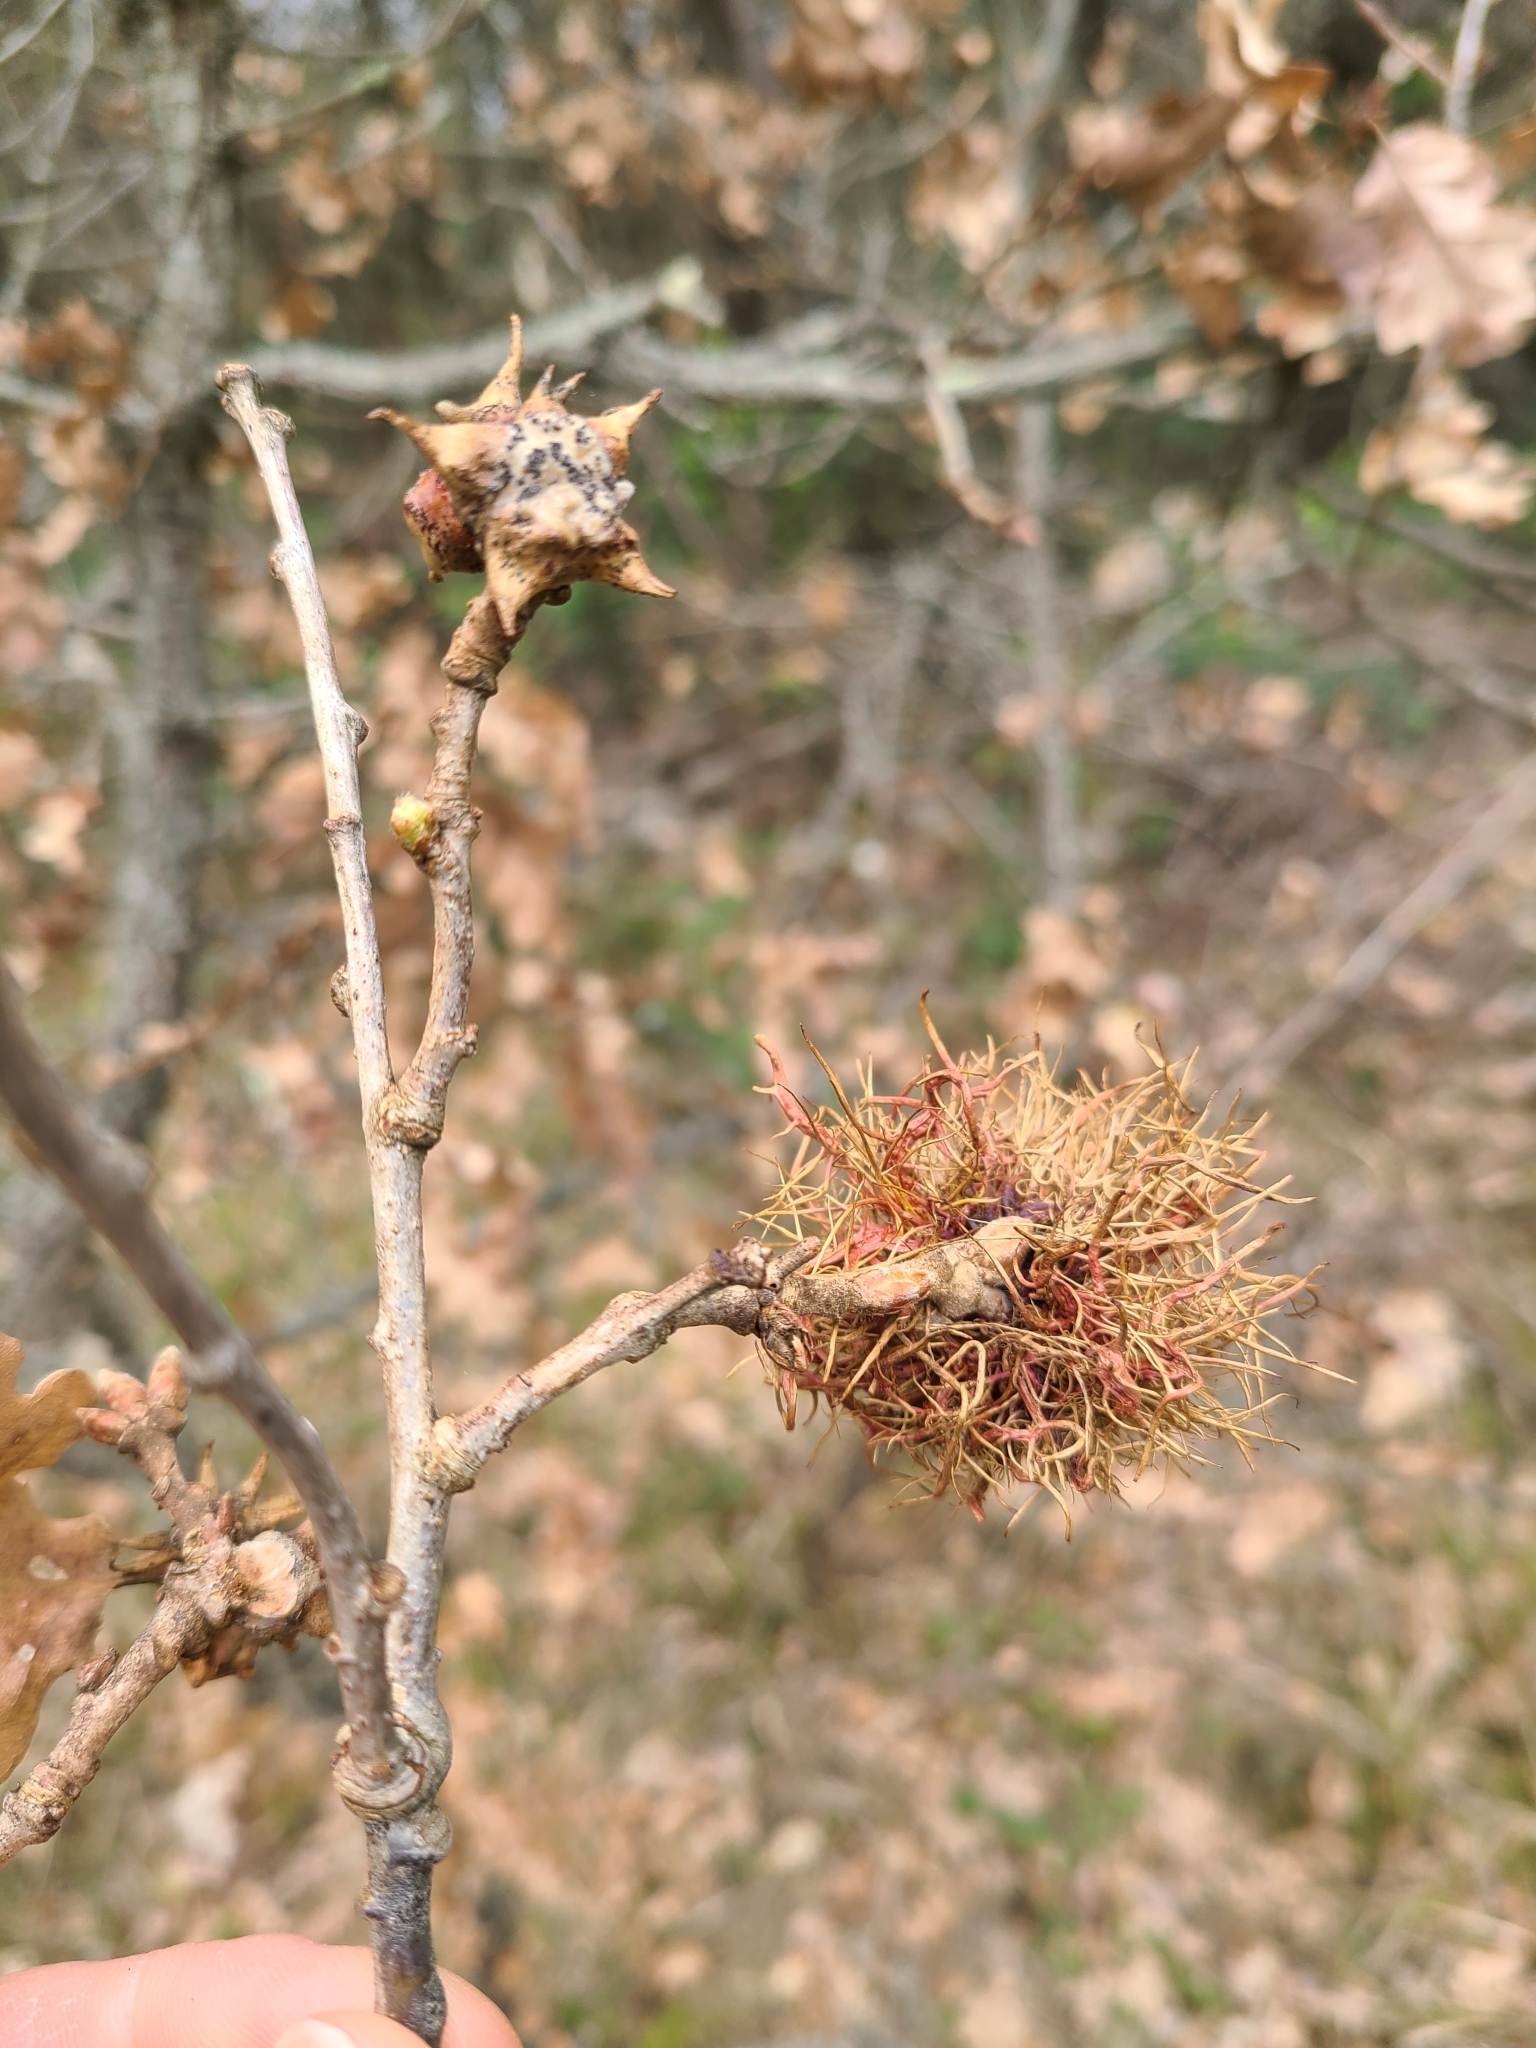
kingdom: Animalia
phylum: Arthropoda
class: Insecta
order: Hymenoptera
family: Cynipidae
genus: Andricus
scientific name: Andricus caputmedusae
